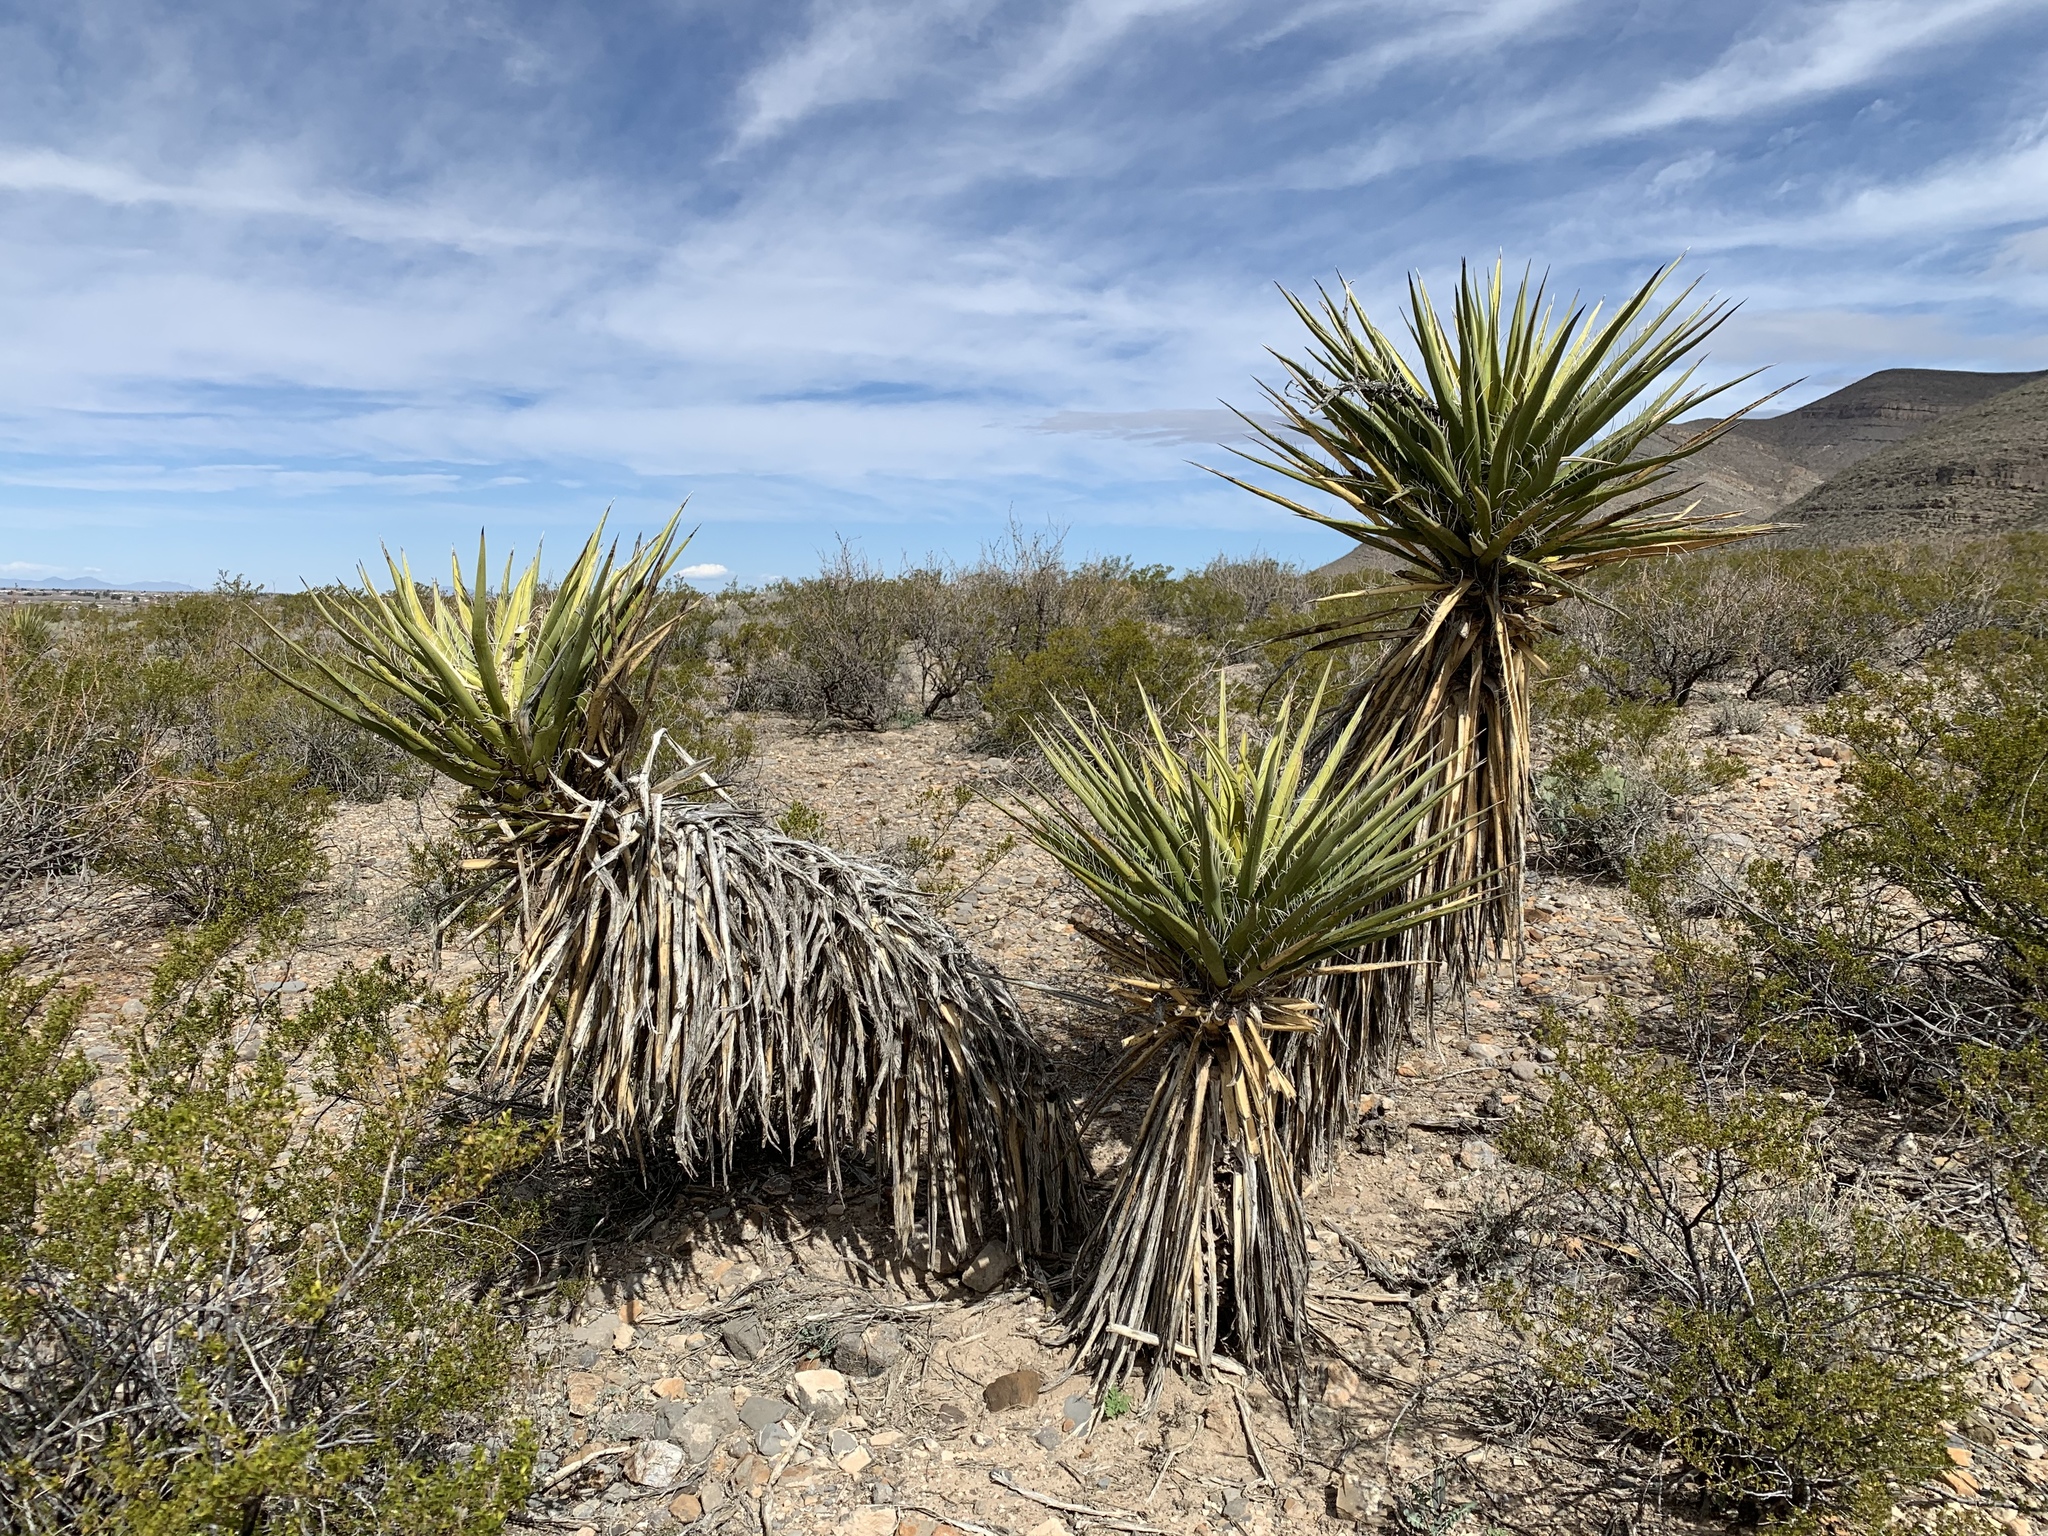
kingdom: Plantae
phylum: Tracheophyta
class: Liliopsida
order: Asparagales
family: Asparagaceae
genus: Yucca
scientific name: Yucca treculiana
